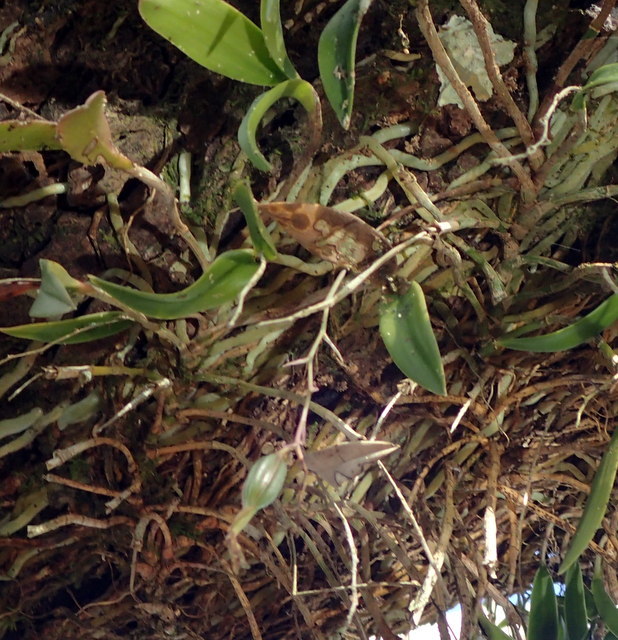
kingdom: Plantae
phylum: Tracheophyta
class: Liliopsida
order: Asparagales
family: Orchidaceae
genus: Epidendrum
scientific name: Epidendrum conopseum
